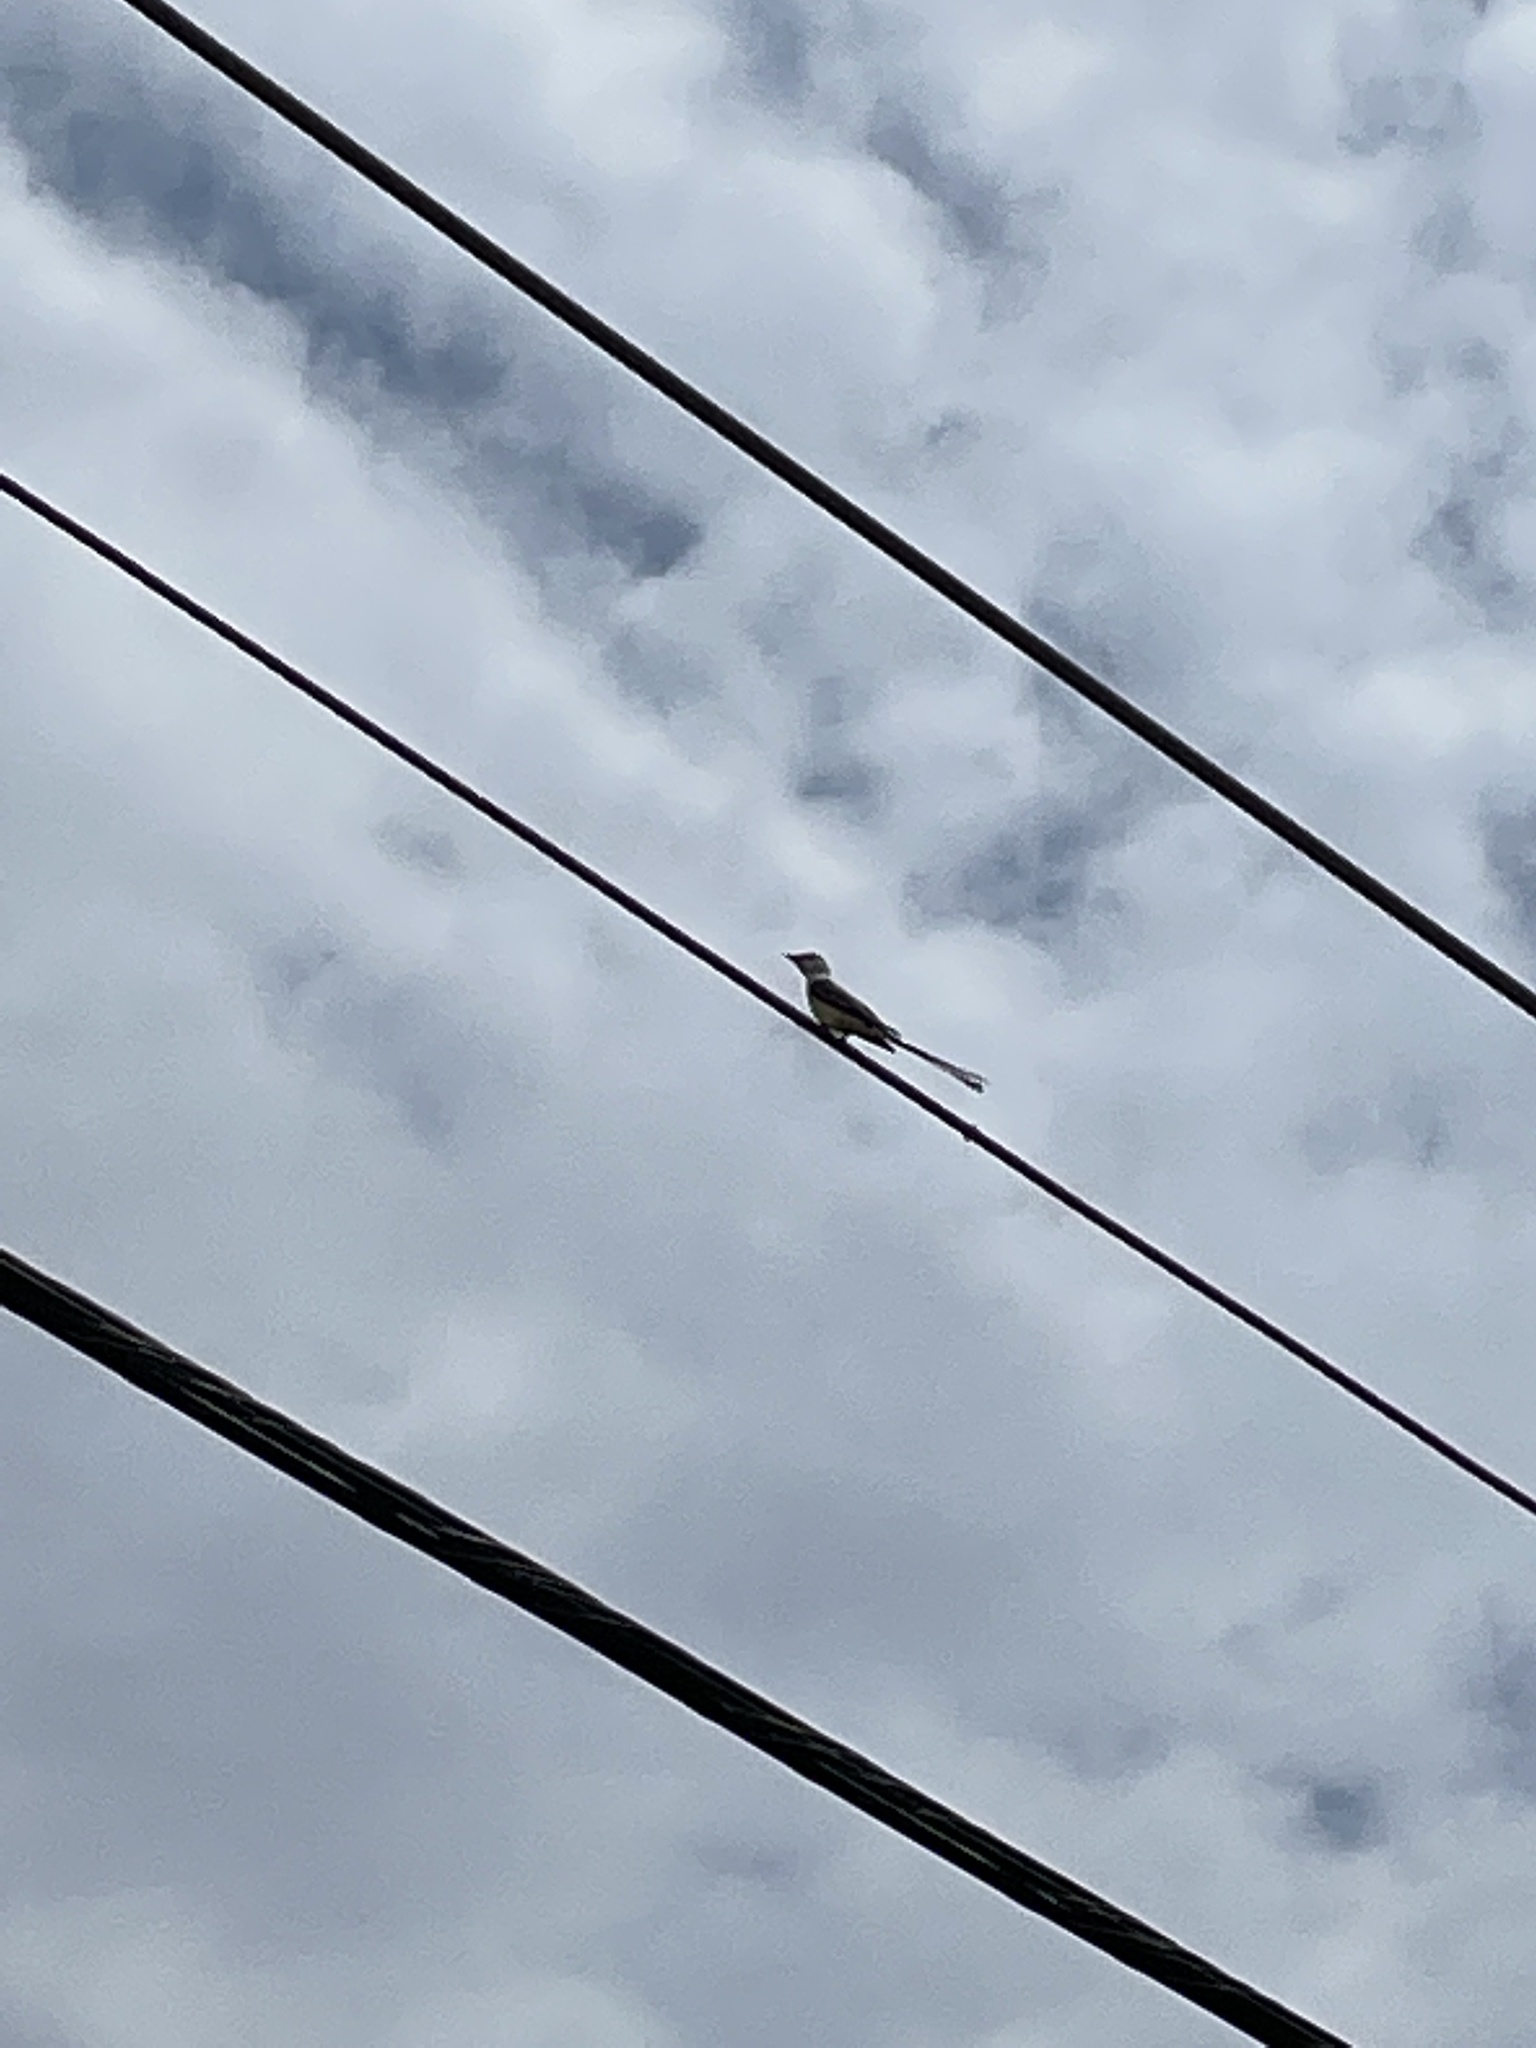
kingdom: Animalia
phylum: Chordata
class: Aves
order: Passeriformes
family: Tyrannidae
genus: Tyrannus
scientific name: Tyrannus forficatus
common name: Scissor-tailed flycatcher
